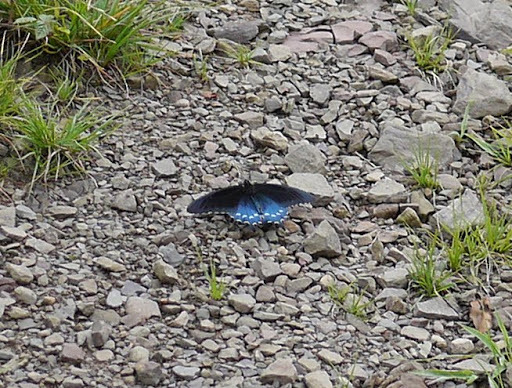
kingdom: Animalia
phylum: Arthropoda
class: Insecta
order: Lepidoptera
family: Papilionidae
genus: Battus
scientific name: Battus philenor
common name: Pipevine swallowtail
